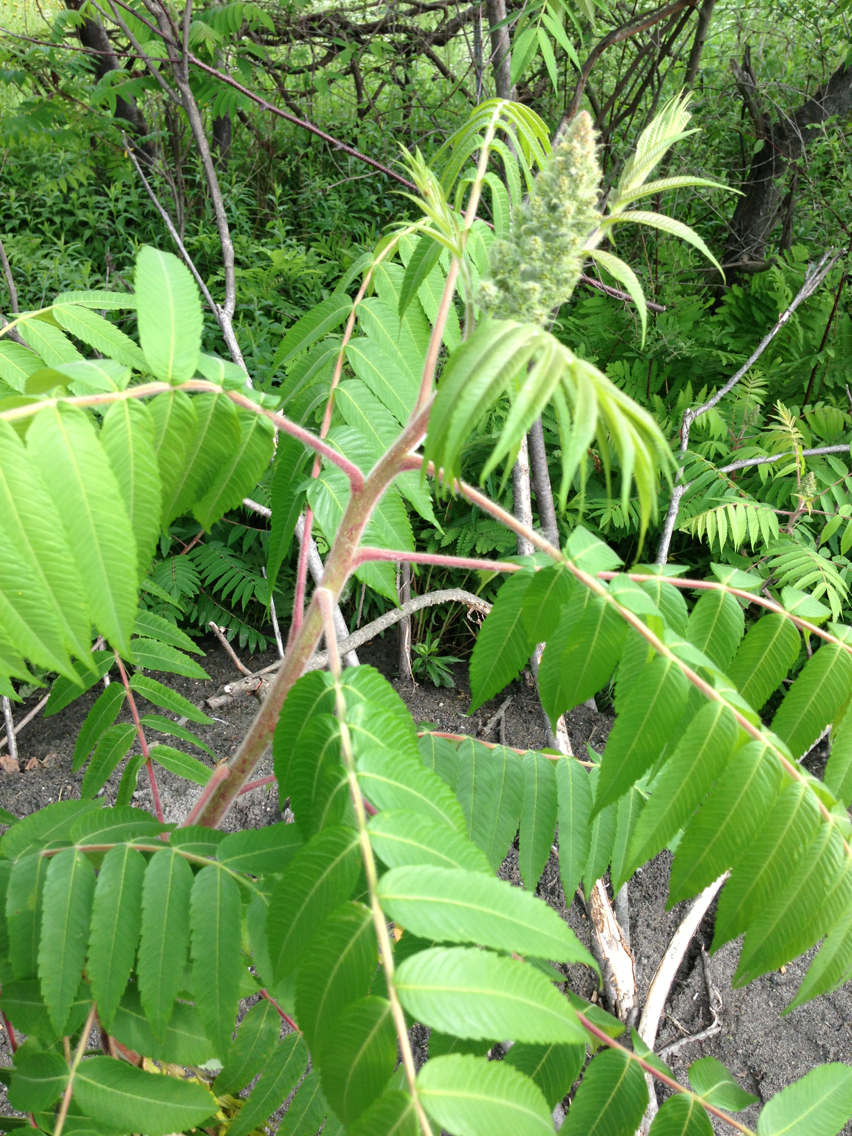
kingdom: Plantae
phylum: Tracheophyta
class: Magnoliopsida
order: Sapindales
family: Anacardiaceae
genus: Rhus
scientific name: Rhus typhina
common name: Staghorn sumac
